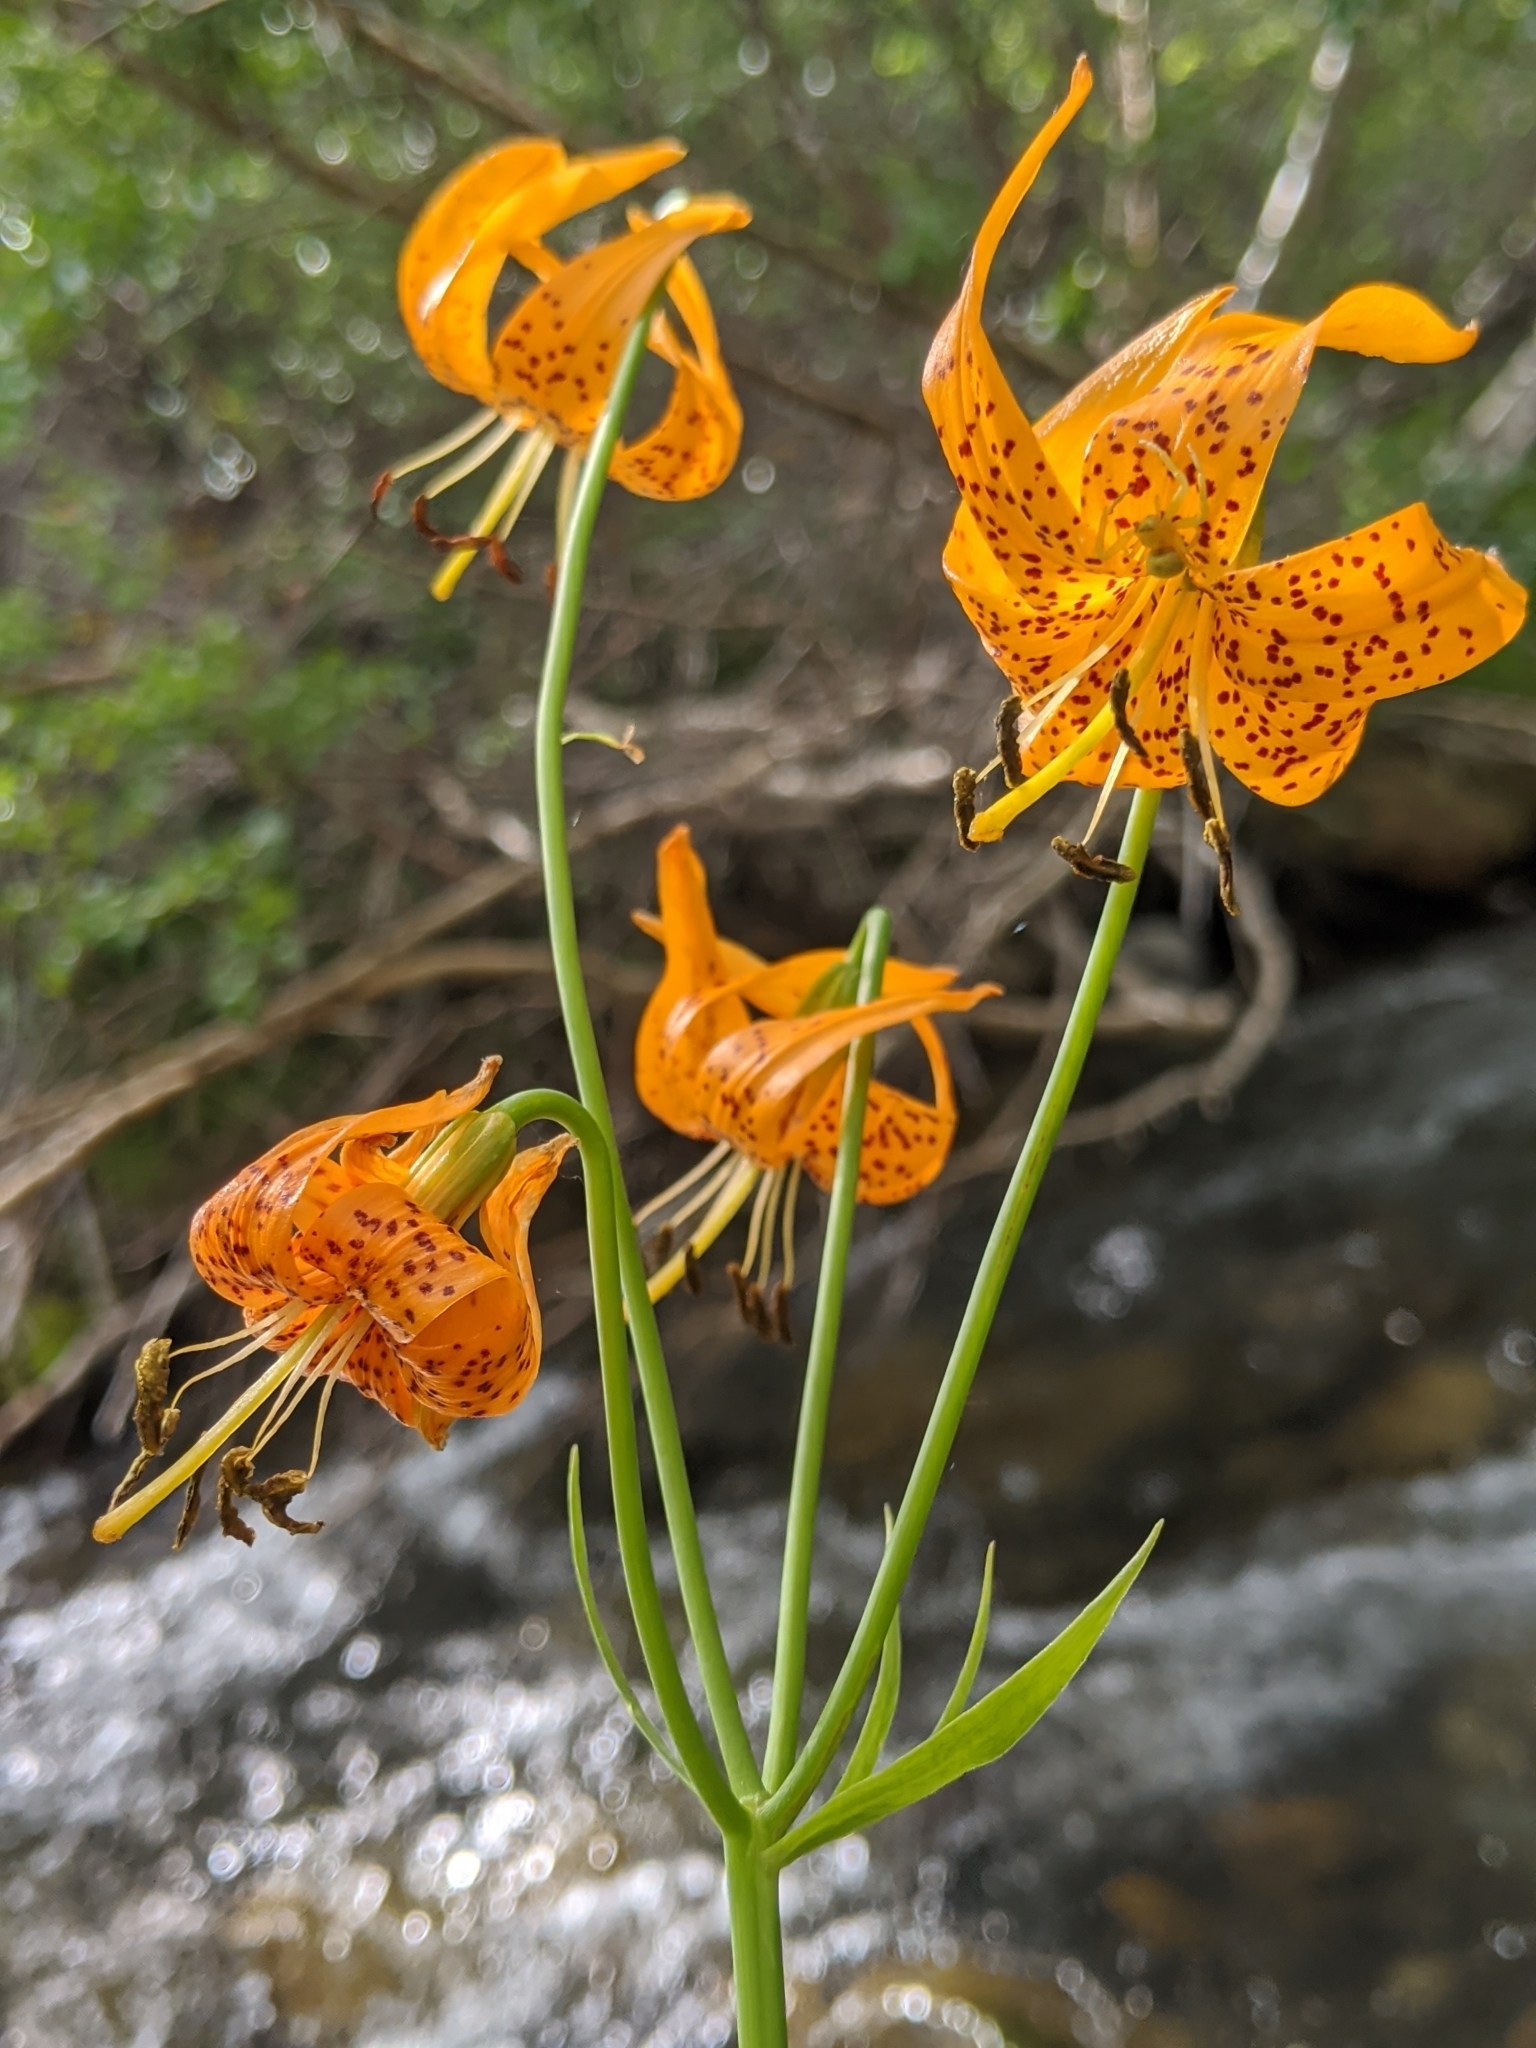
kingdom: Plantae
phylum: Tracheophyta
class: Liliopsida
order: Liliales
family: Liliaceae
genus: Lilium
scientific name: Lilium kelleyanum
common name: Kelley's lily
